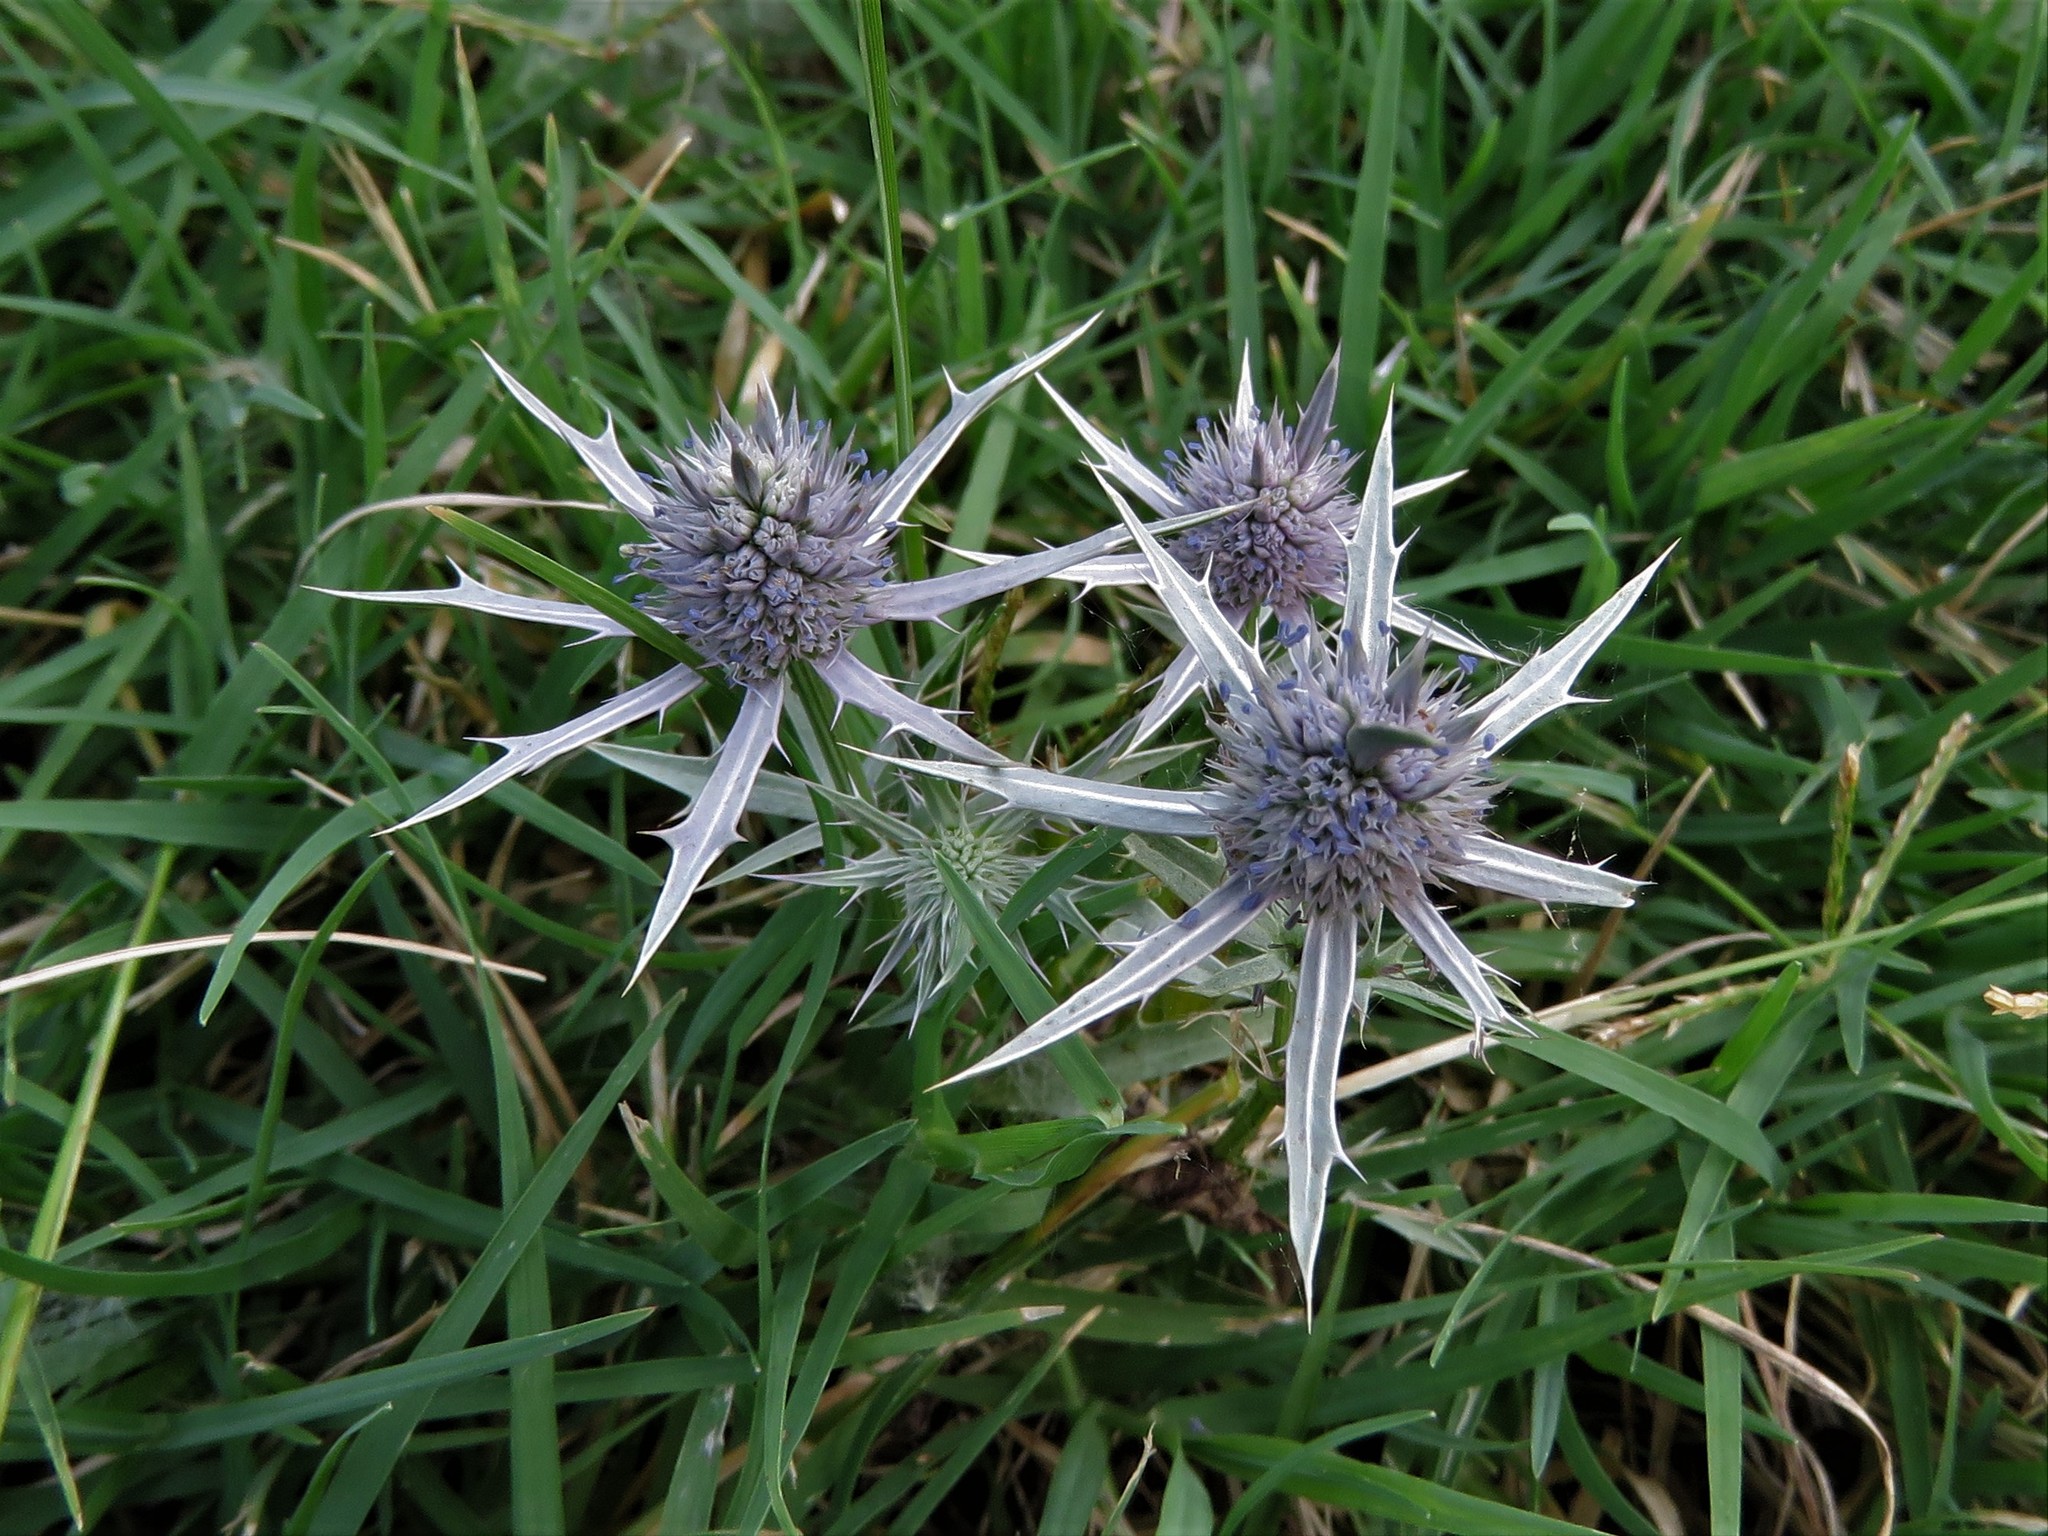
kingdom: Plantae
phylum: Tracheophyta
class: Magnoliopsida
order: Apiales
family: Apiaceae
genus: Eryngium
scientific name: Eryngium hookeri
